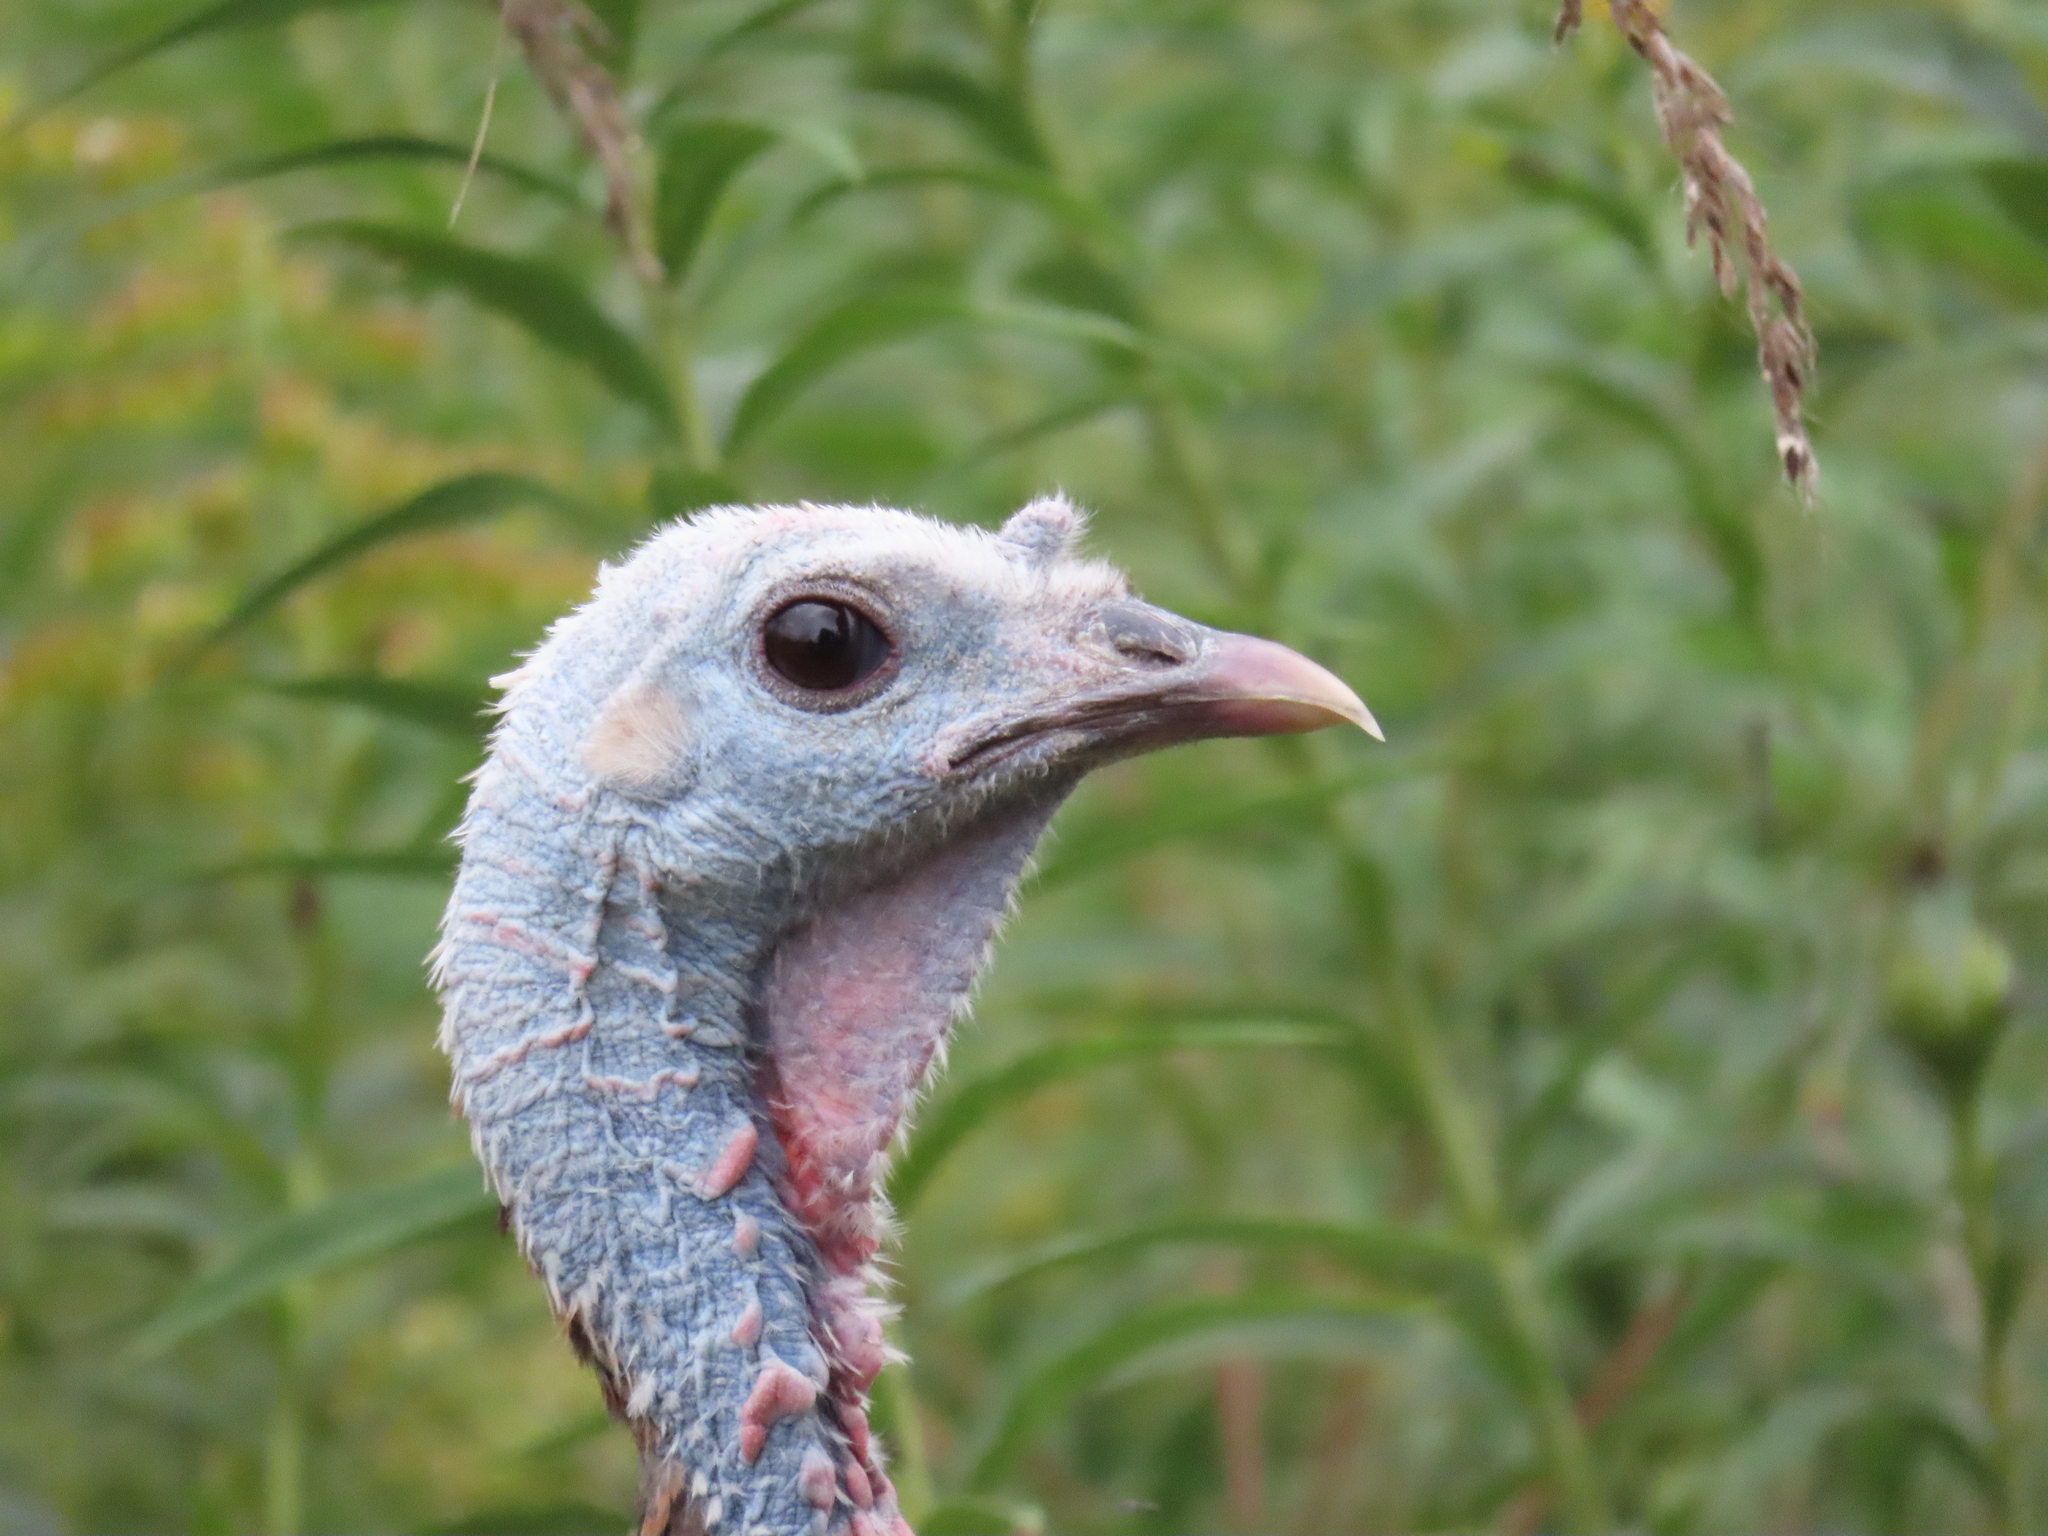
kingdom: Animalia
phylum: Chordata
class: Aves
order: Galliformes
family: Phasianidae
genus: Meleagris
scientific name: Meleagris gallopavo
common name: Wild turkey
